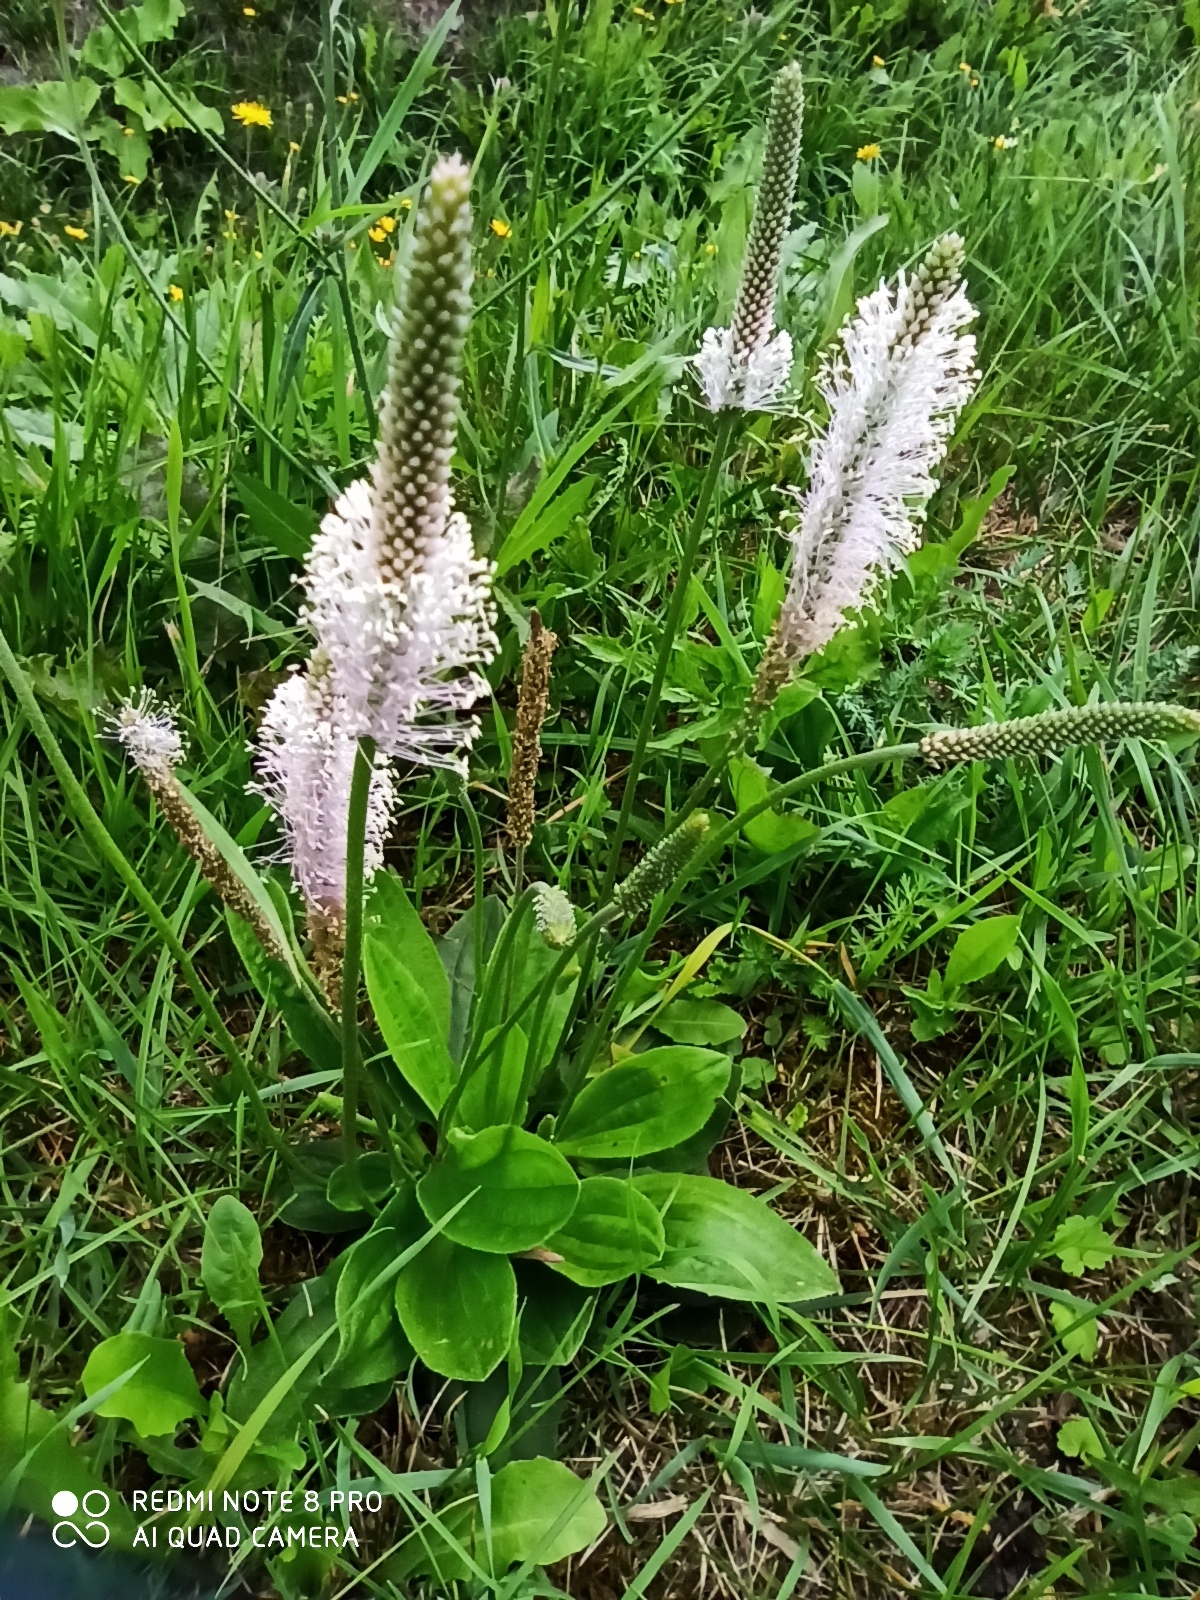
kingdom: Plantae
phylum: Tracheophyta
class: Magnoliopsida
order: Lamiales
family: Plantaginaceae
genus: Plantago
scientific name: Plantago media
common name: Hoary plantain
